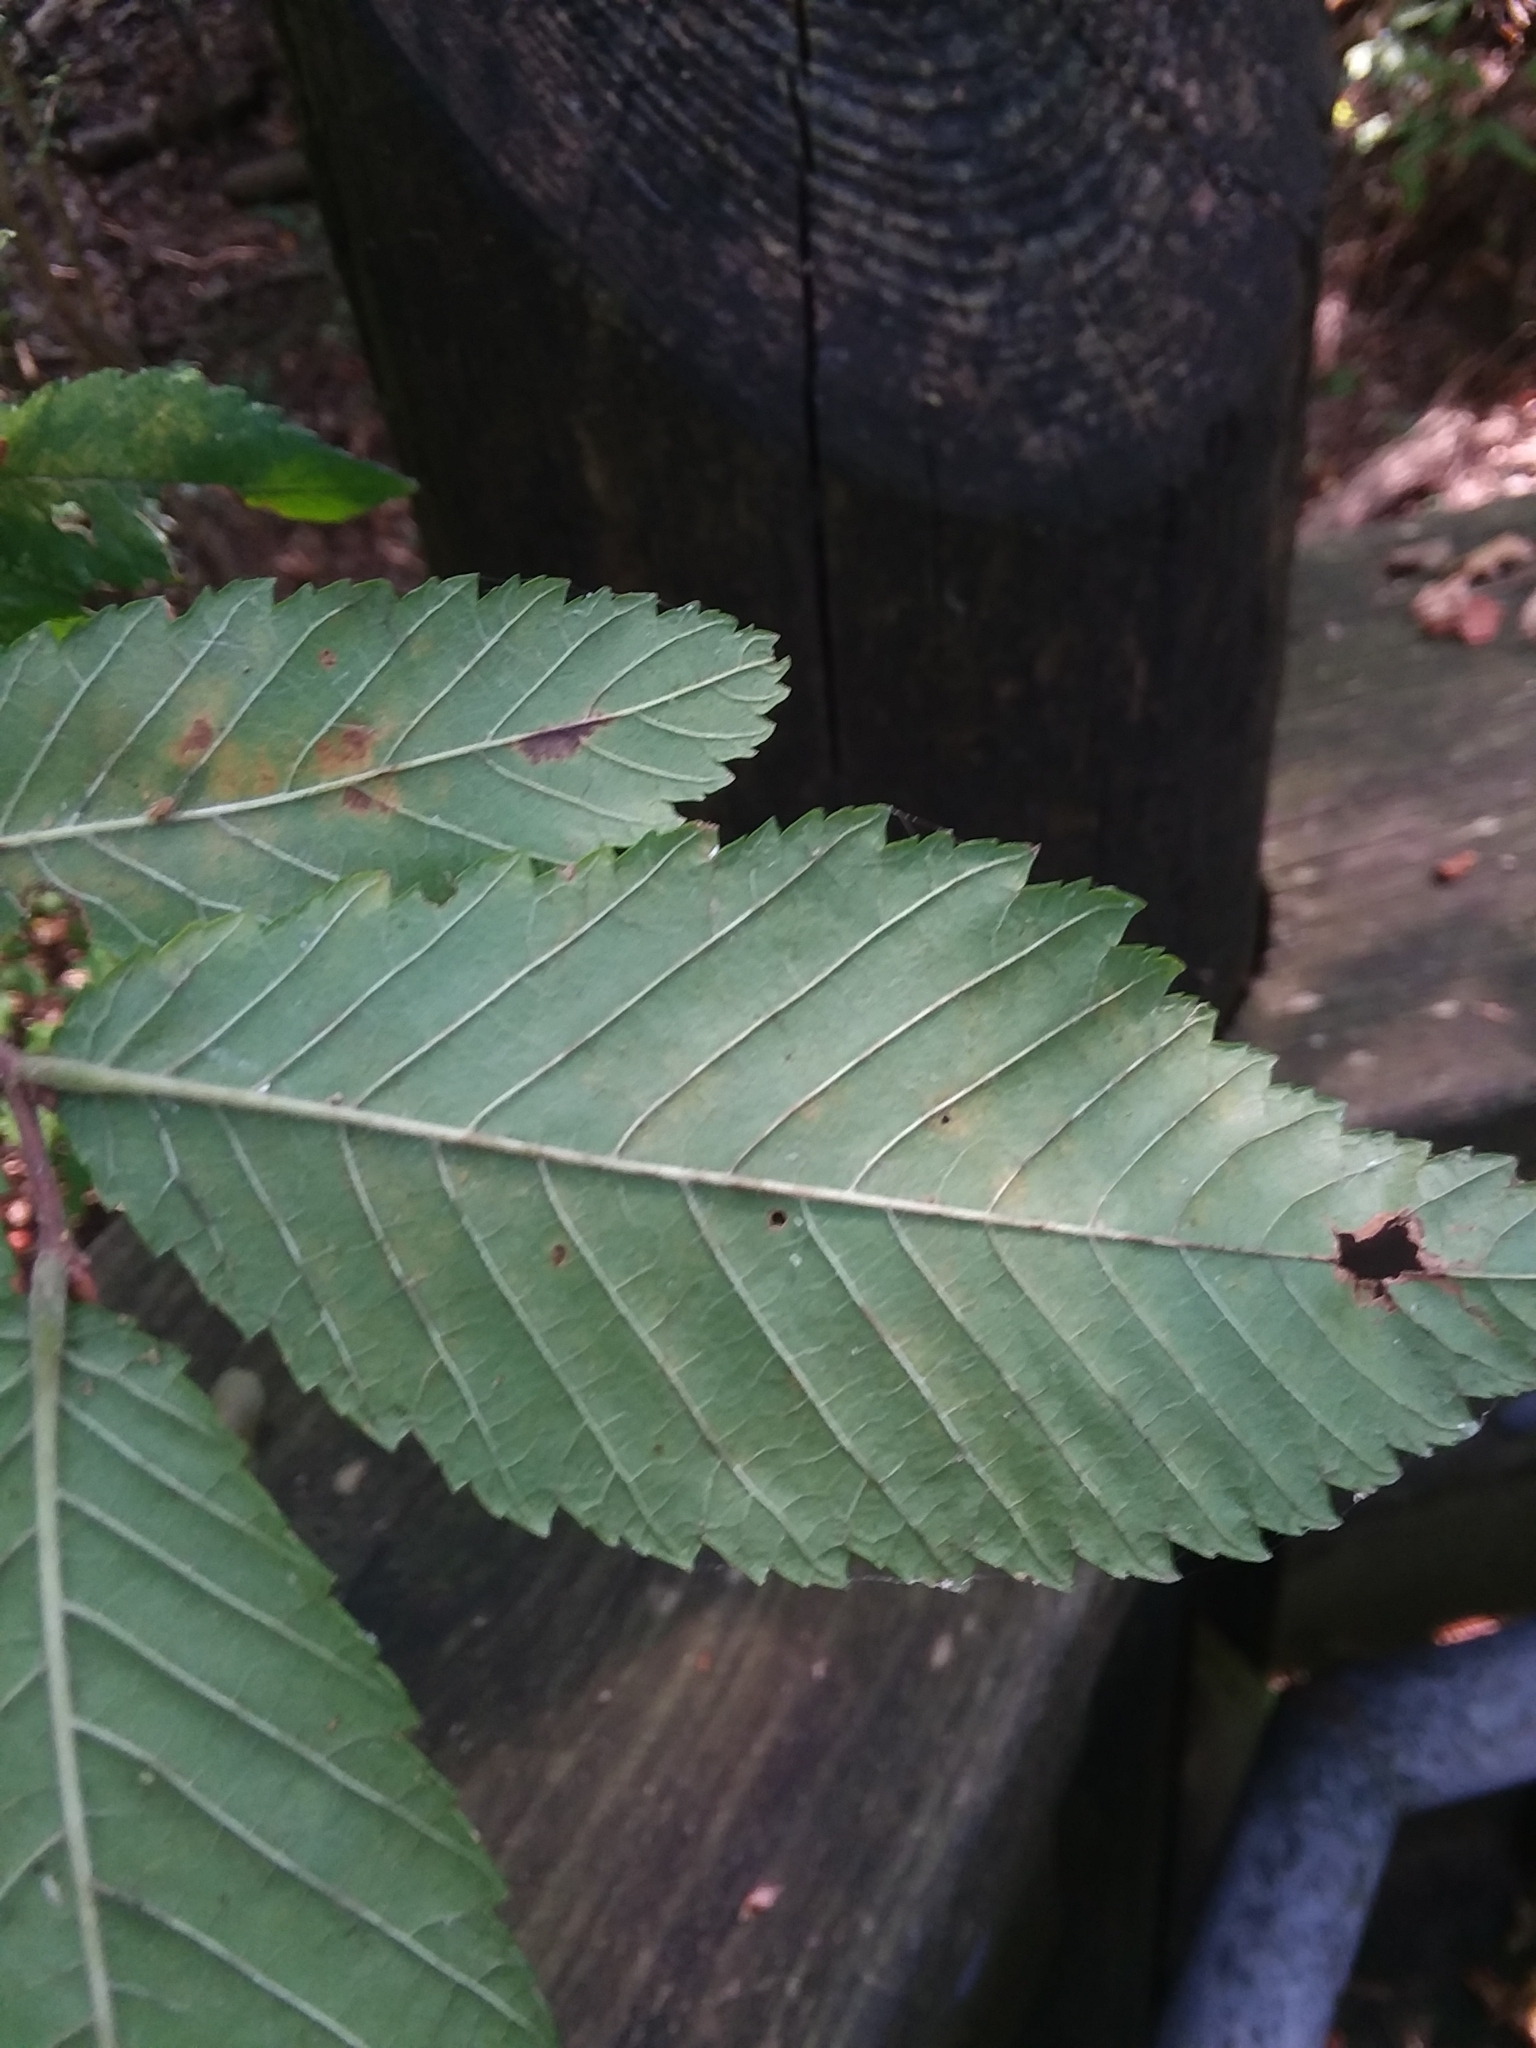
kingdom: Plantae
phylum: Tracheophyta
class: Magnoliopsida
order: Rosales
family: Ulmaceae
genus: Ulmus
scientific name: Ulmus alata
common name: Winged elm
